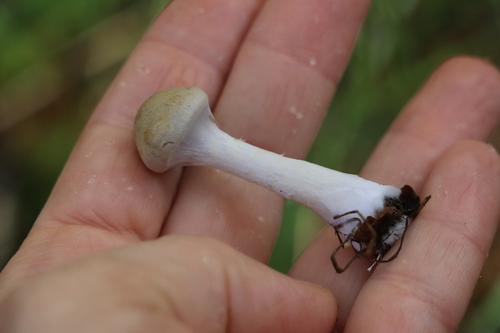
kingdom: Fungi
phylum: Basidiomycota
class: Agaricomycetes
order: Agaricales
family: Cortinariaceae
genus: Cortinarius
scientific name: Cortinarius anomalus
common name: Variable webcap
